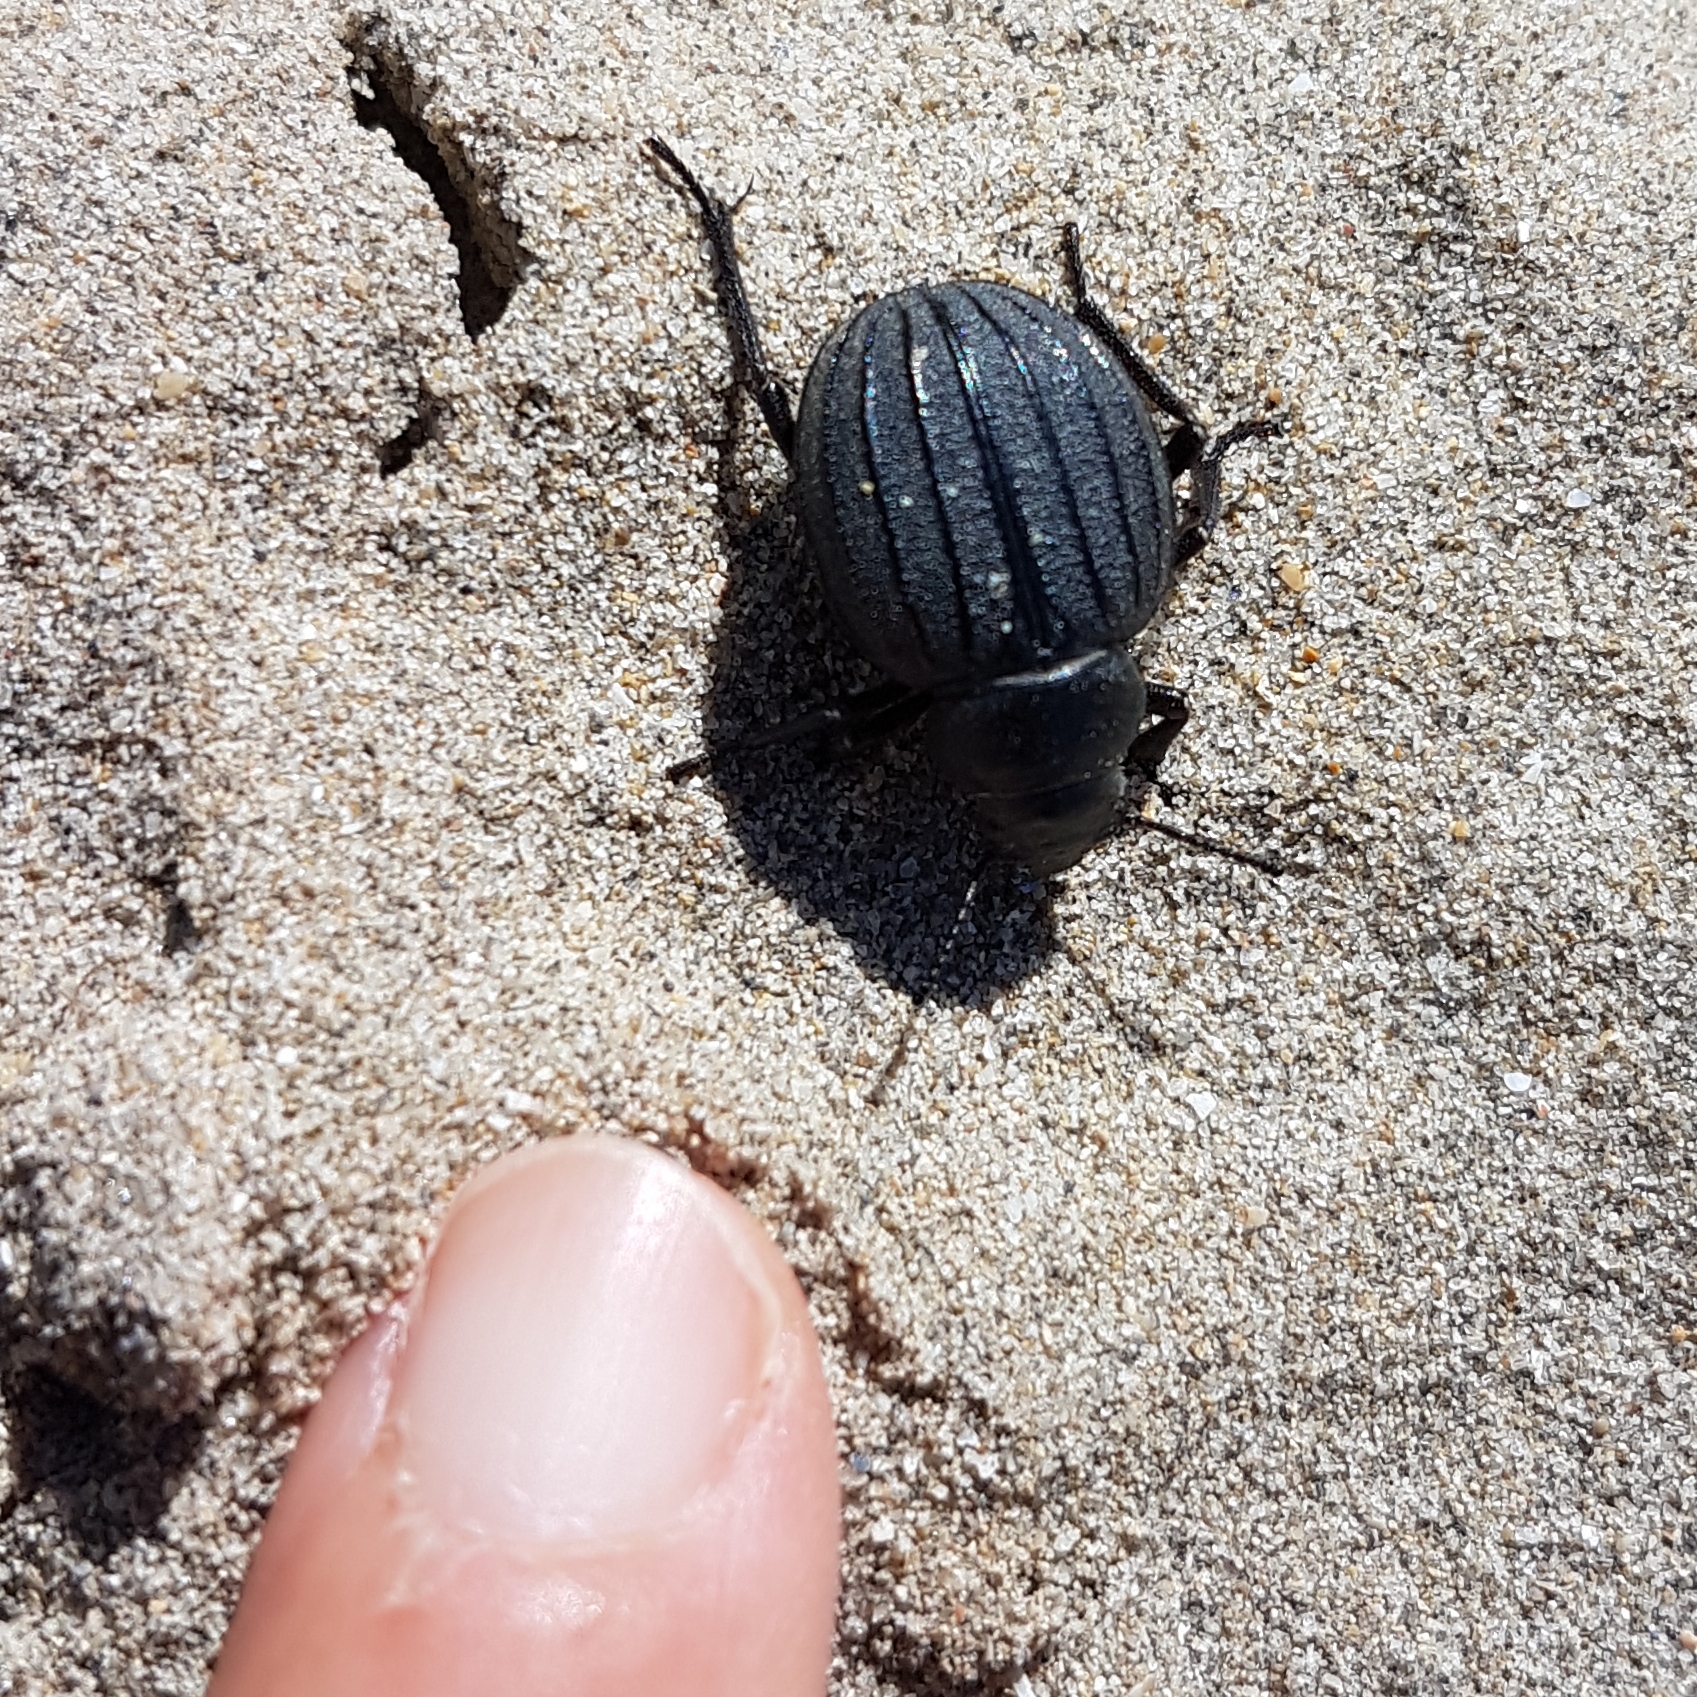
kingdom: Animalia
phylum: Arthropoda
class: Insecta
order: Coleoptera
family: Tenebrionidae
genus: Pimelia
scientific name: Pimelia muricata
